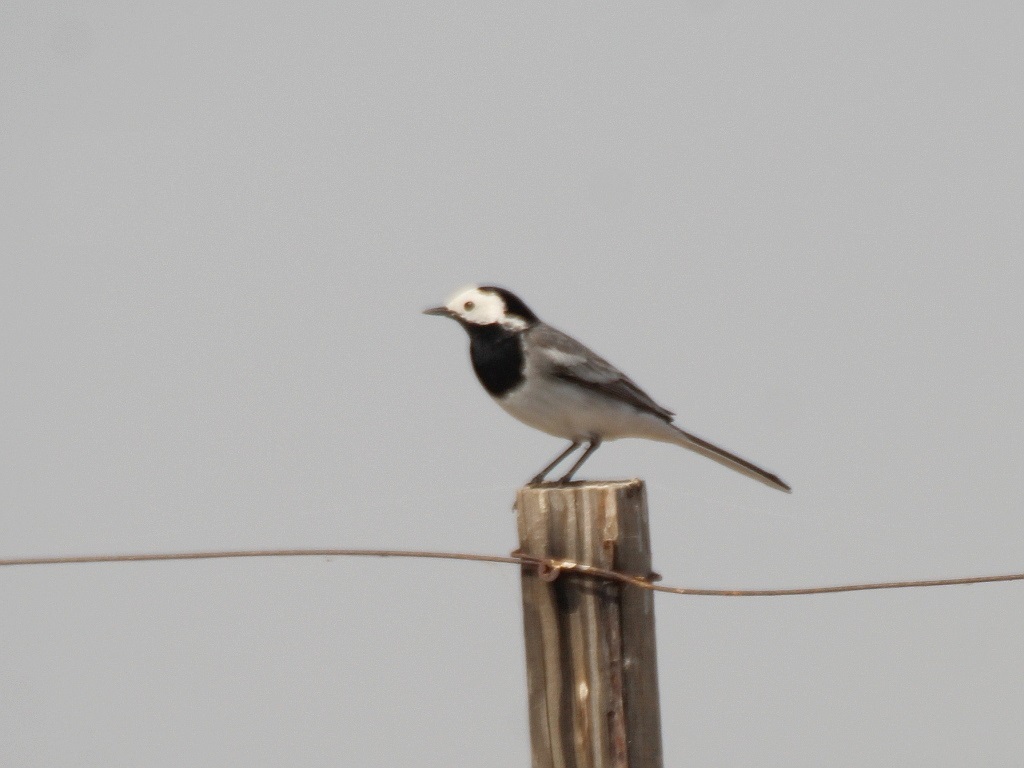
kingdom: Animalia
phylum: Chordata
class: Aves
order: Passeriformes
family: Motacillidae
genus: Motacilla
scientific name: Motacilla alba
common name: White wagtail
